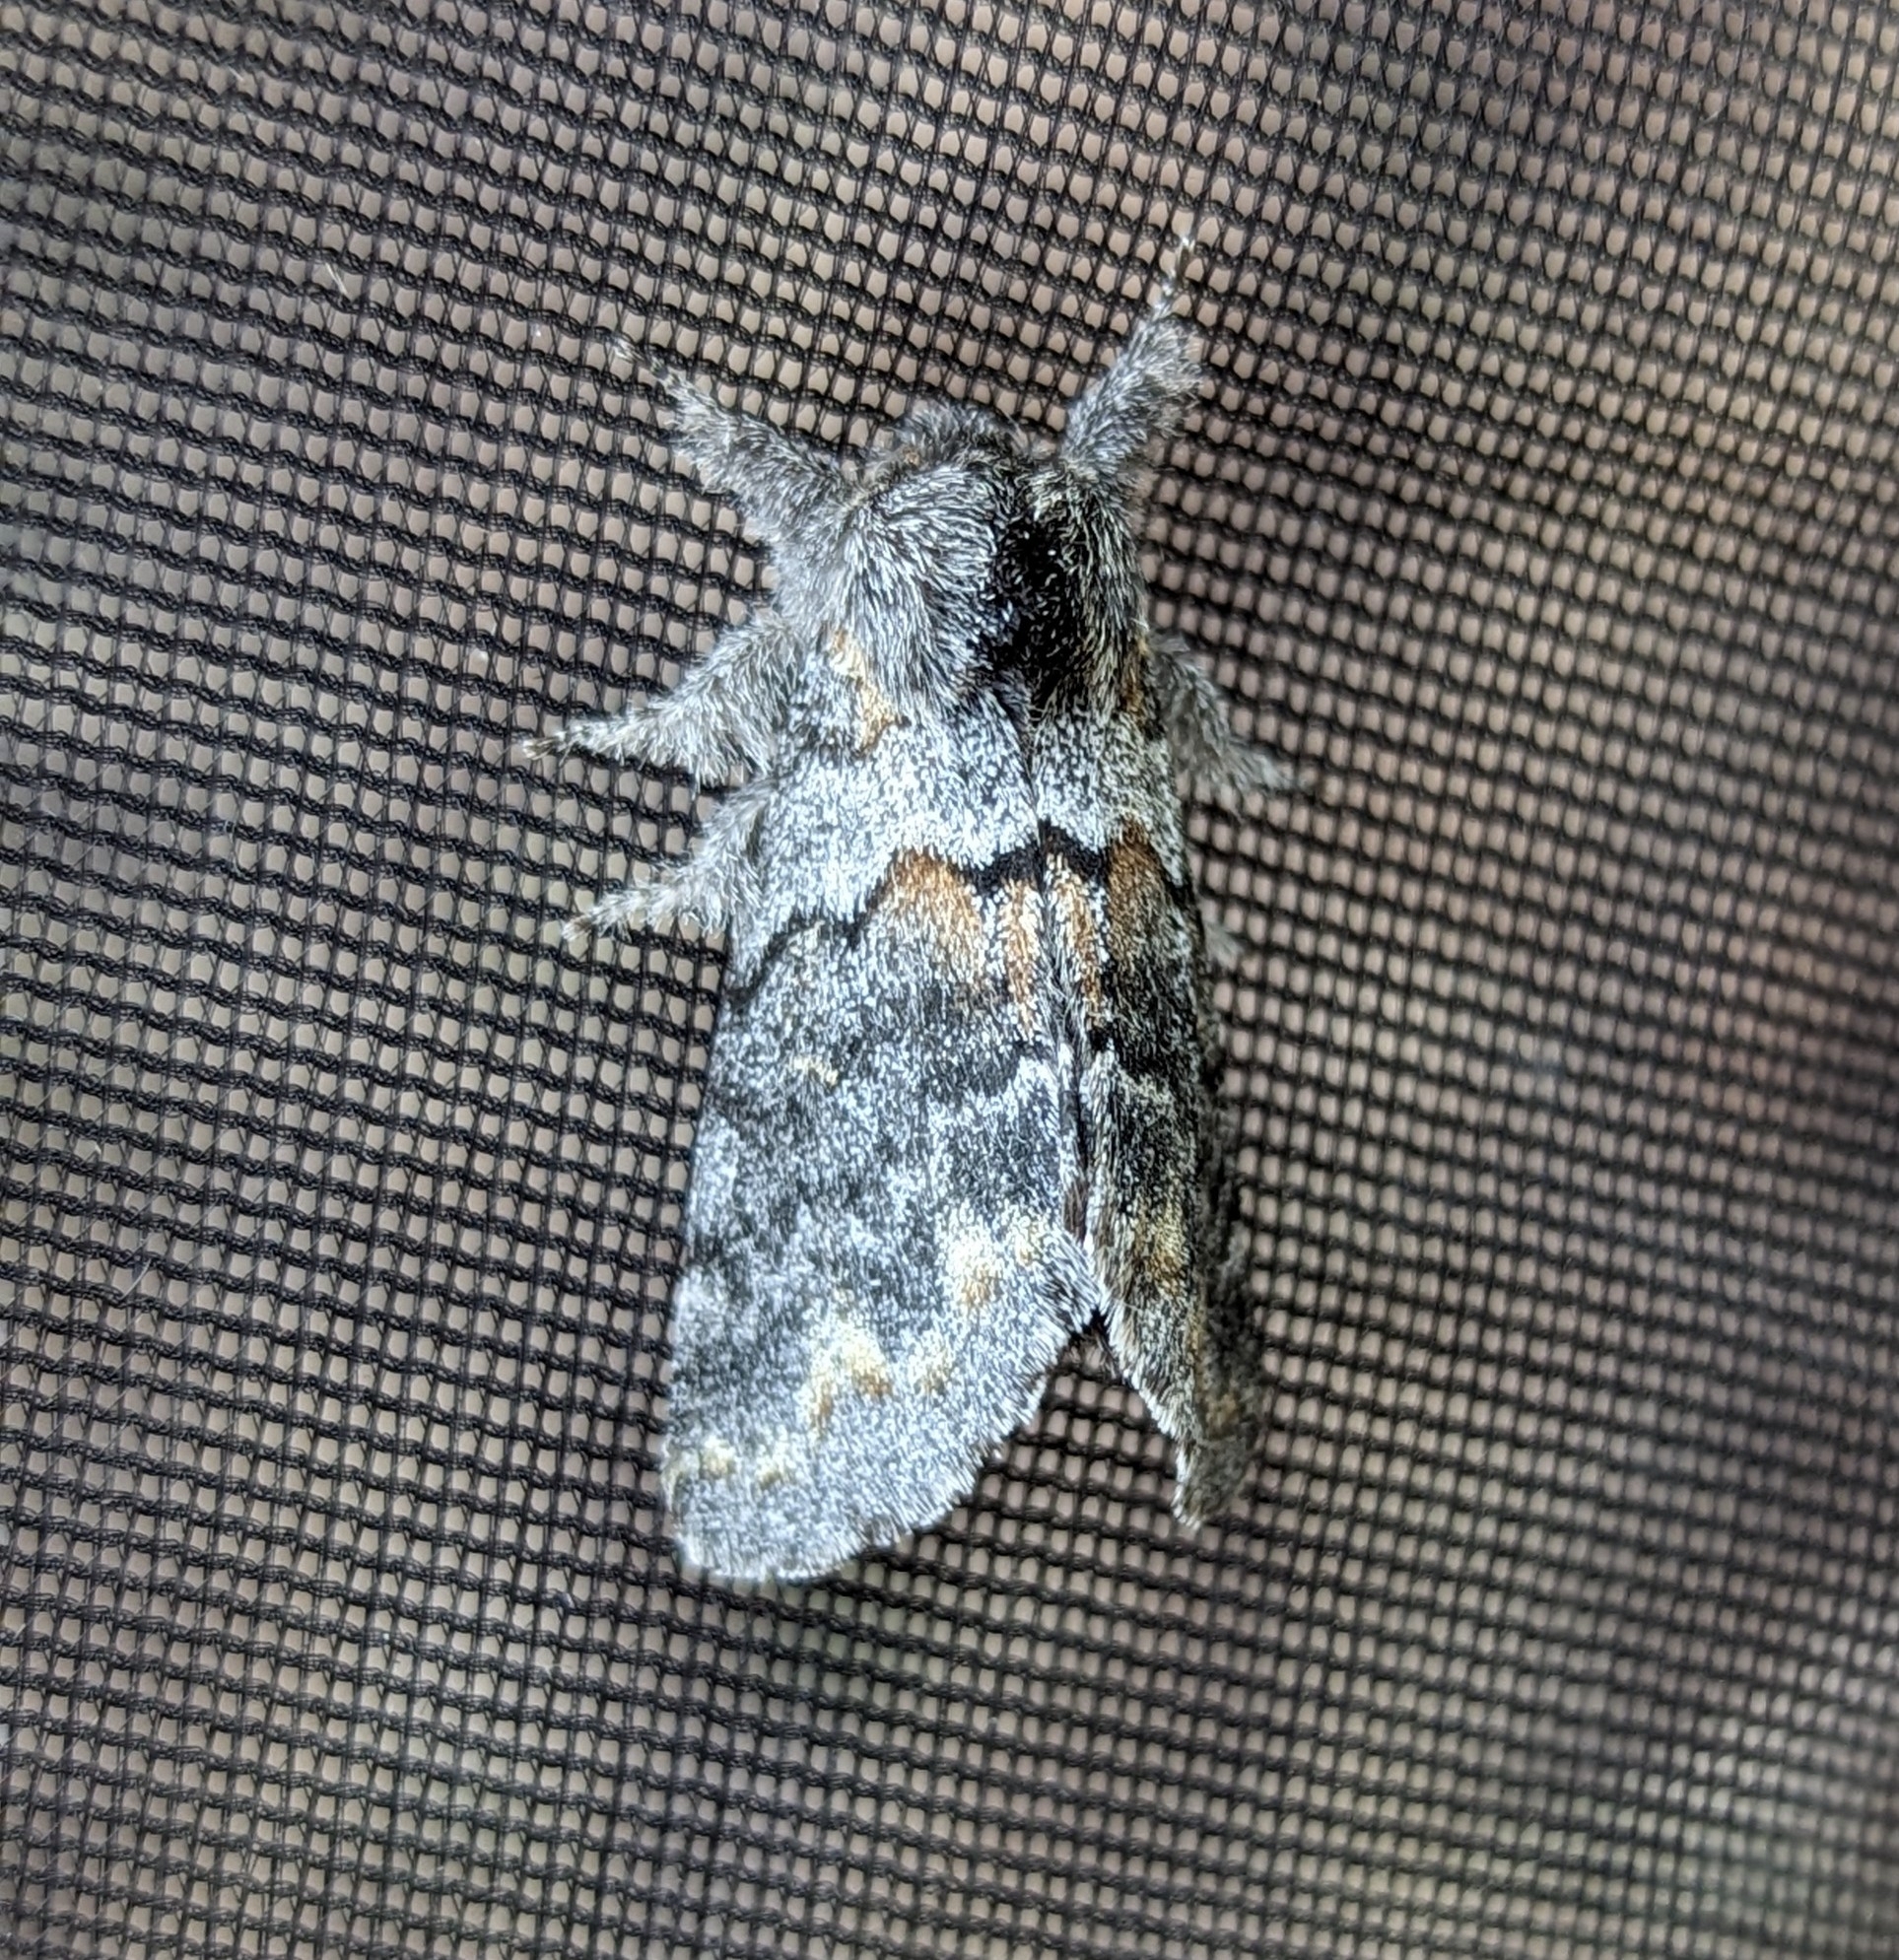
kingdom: Animalia
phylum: Arthropoda
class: Insecta
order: Lepidoptera
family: Notodontidae
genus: Gluphisia
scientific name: Gluphisia severa
